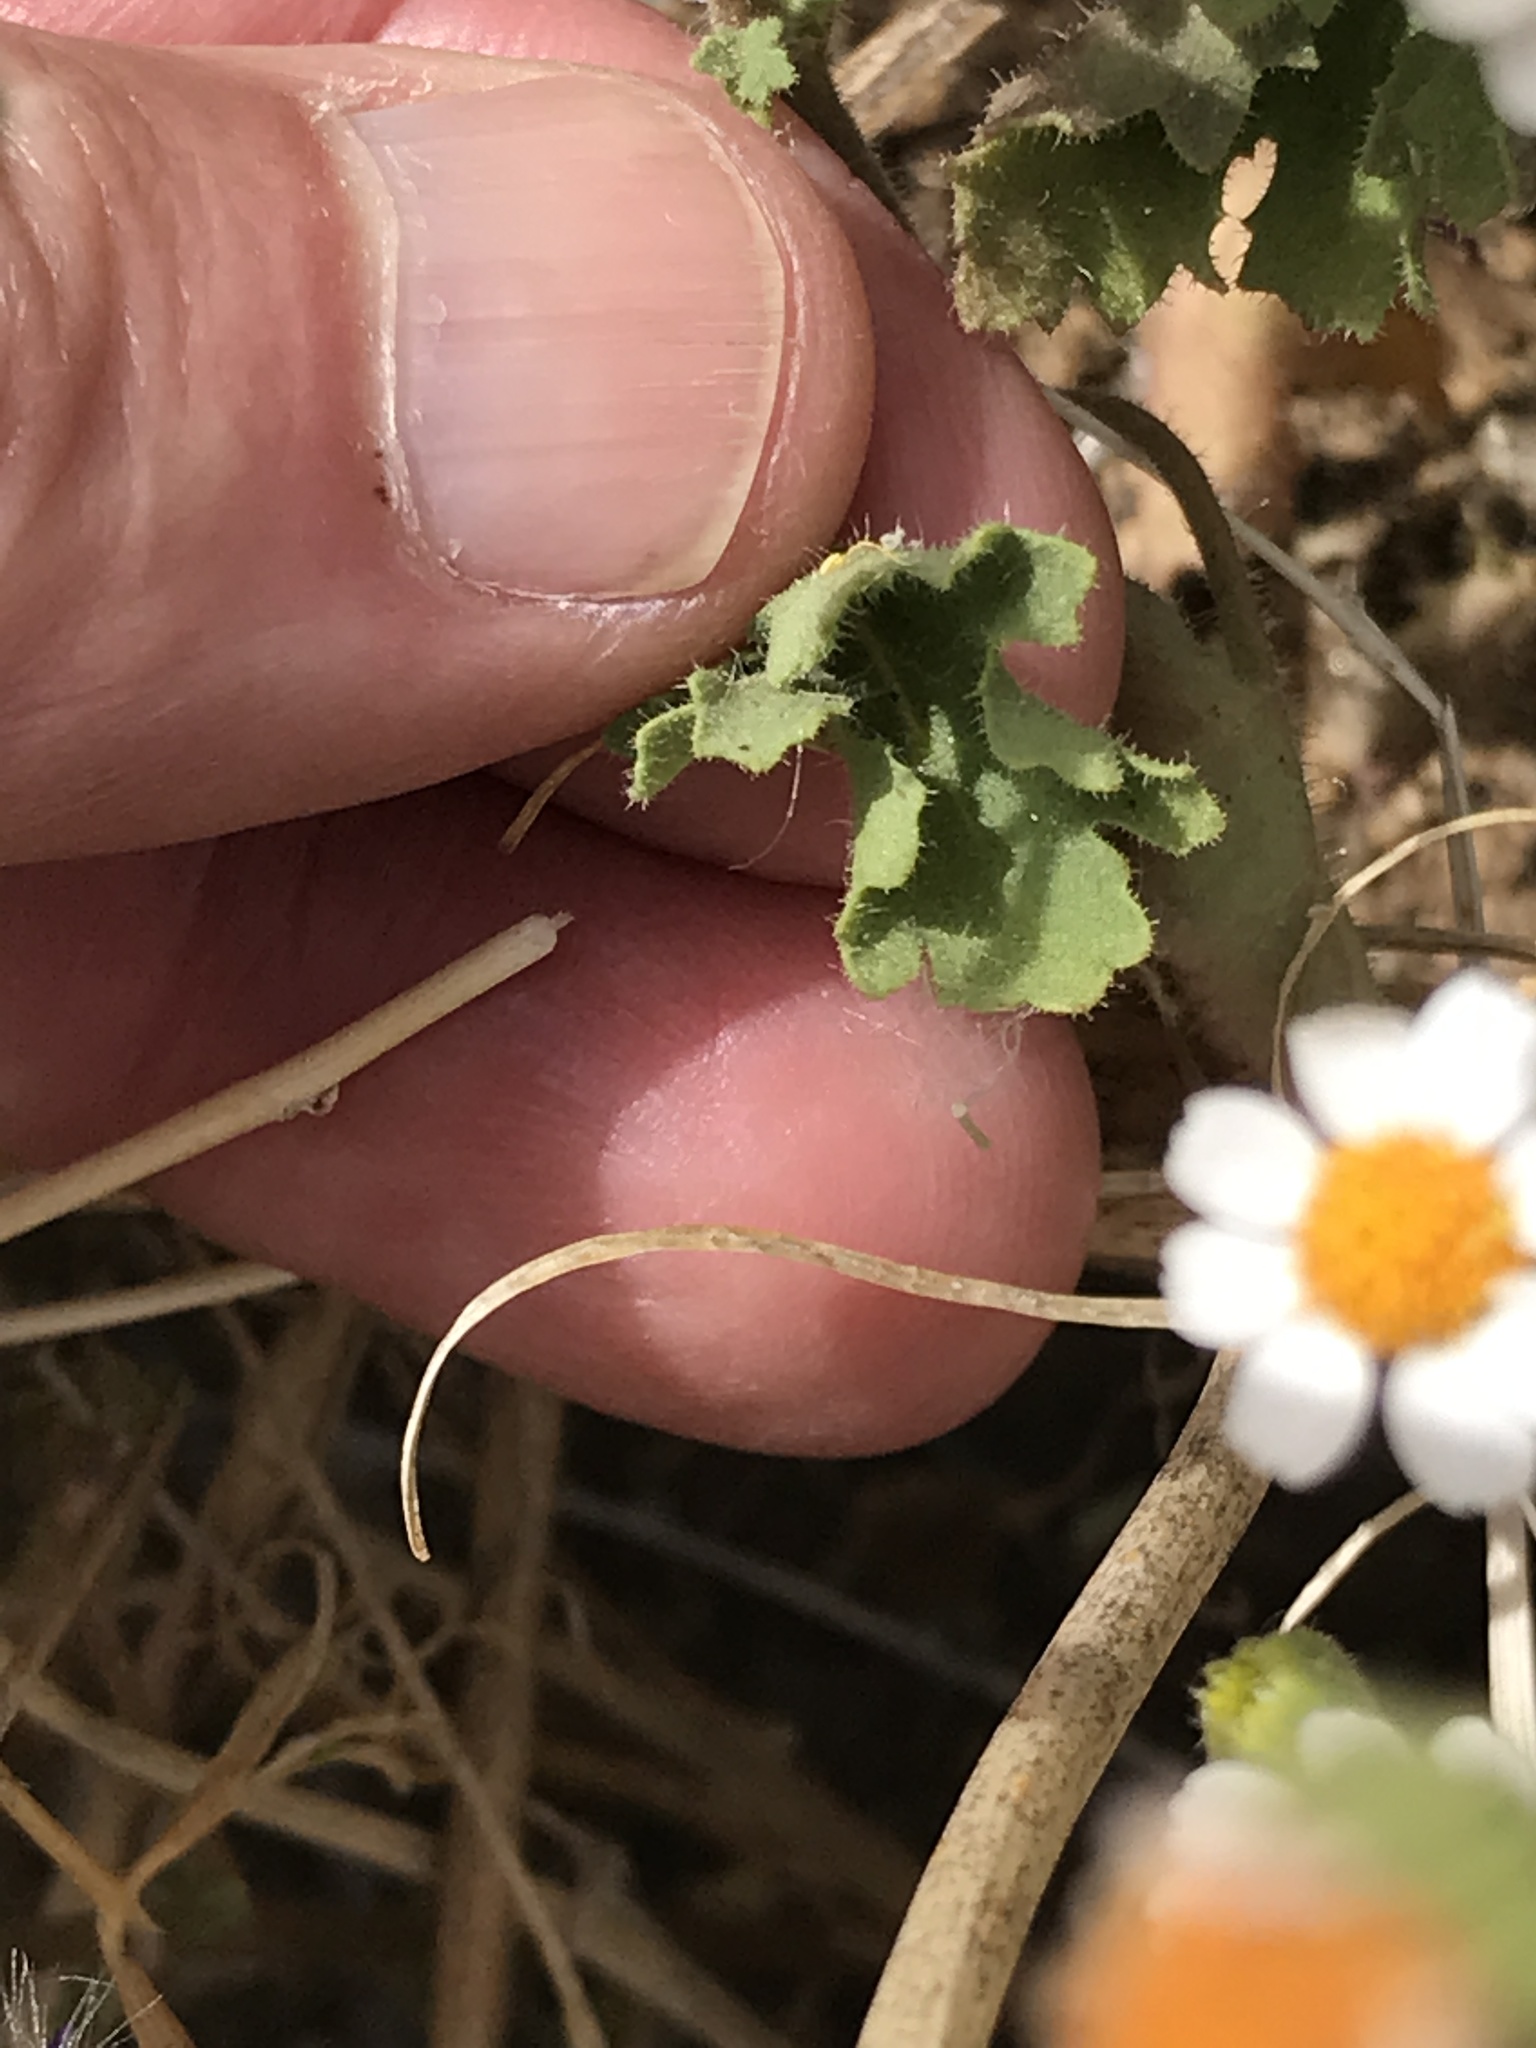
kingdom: Plantae
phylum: Tracheophyta
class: Magnoliopsida
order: Asterales
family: Asteraceae
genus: Laphamia
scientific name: Laphamia emoryi
